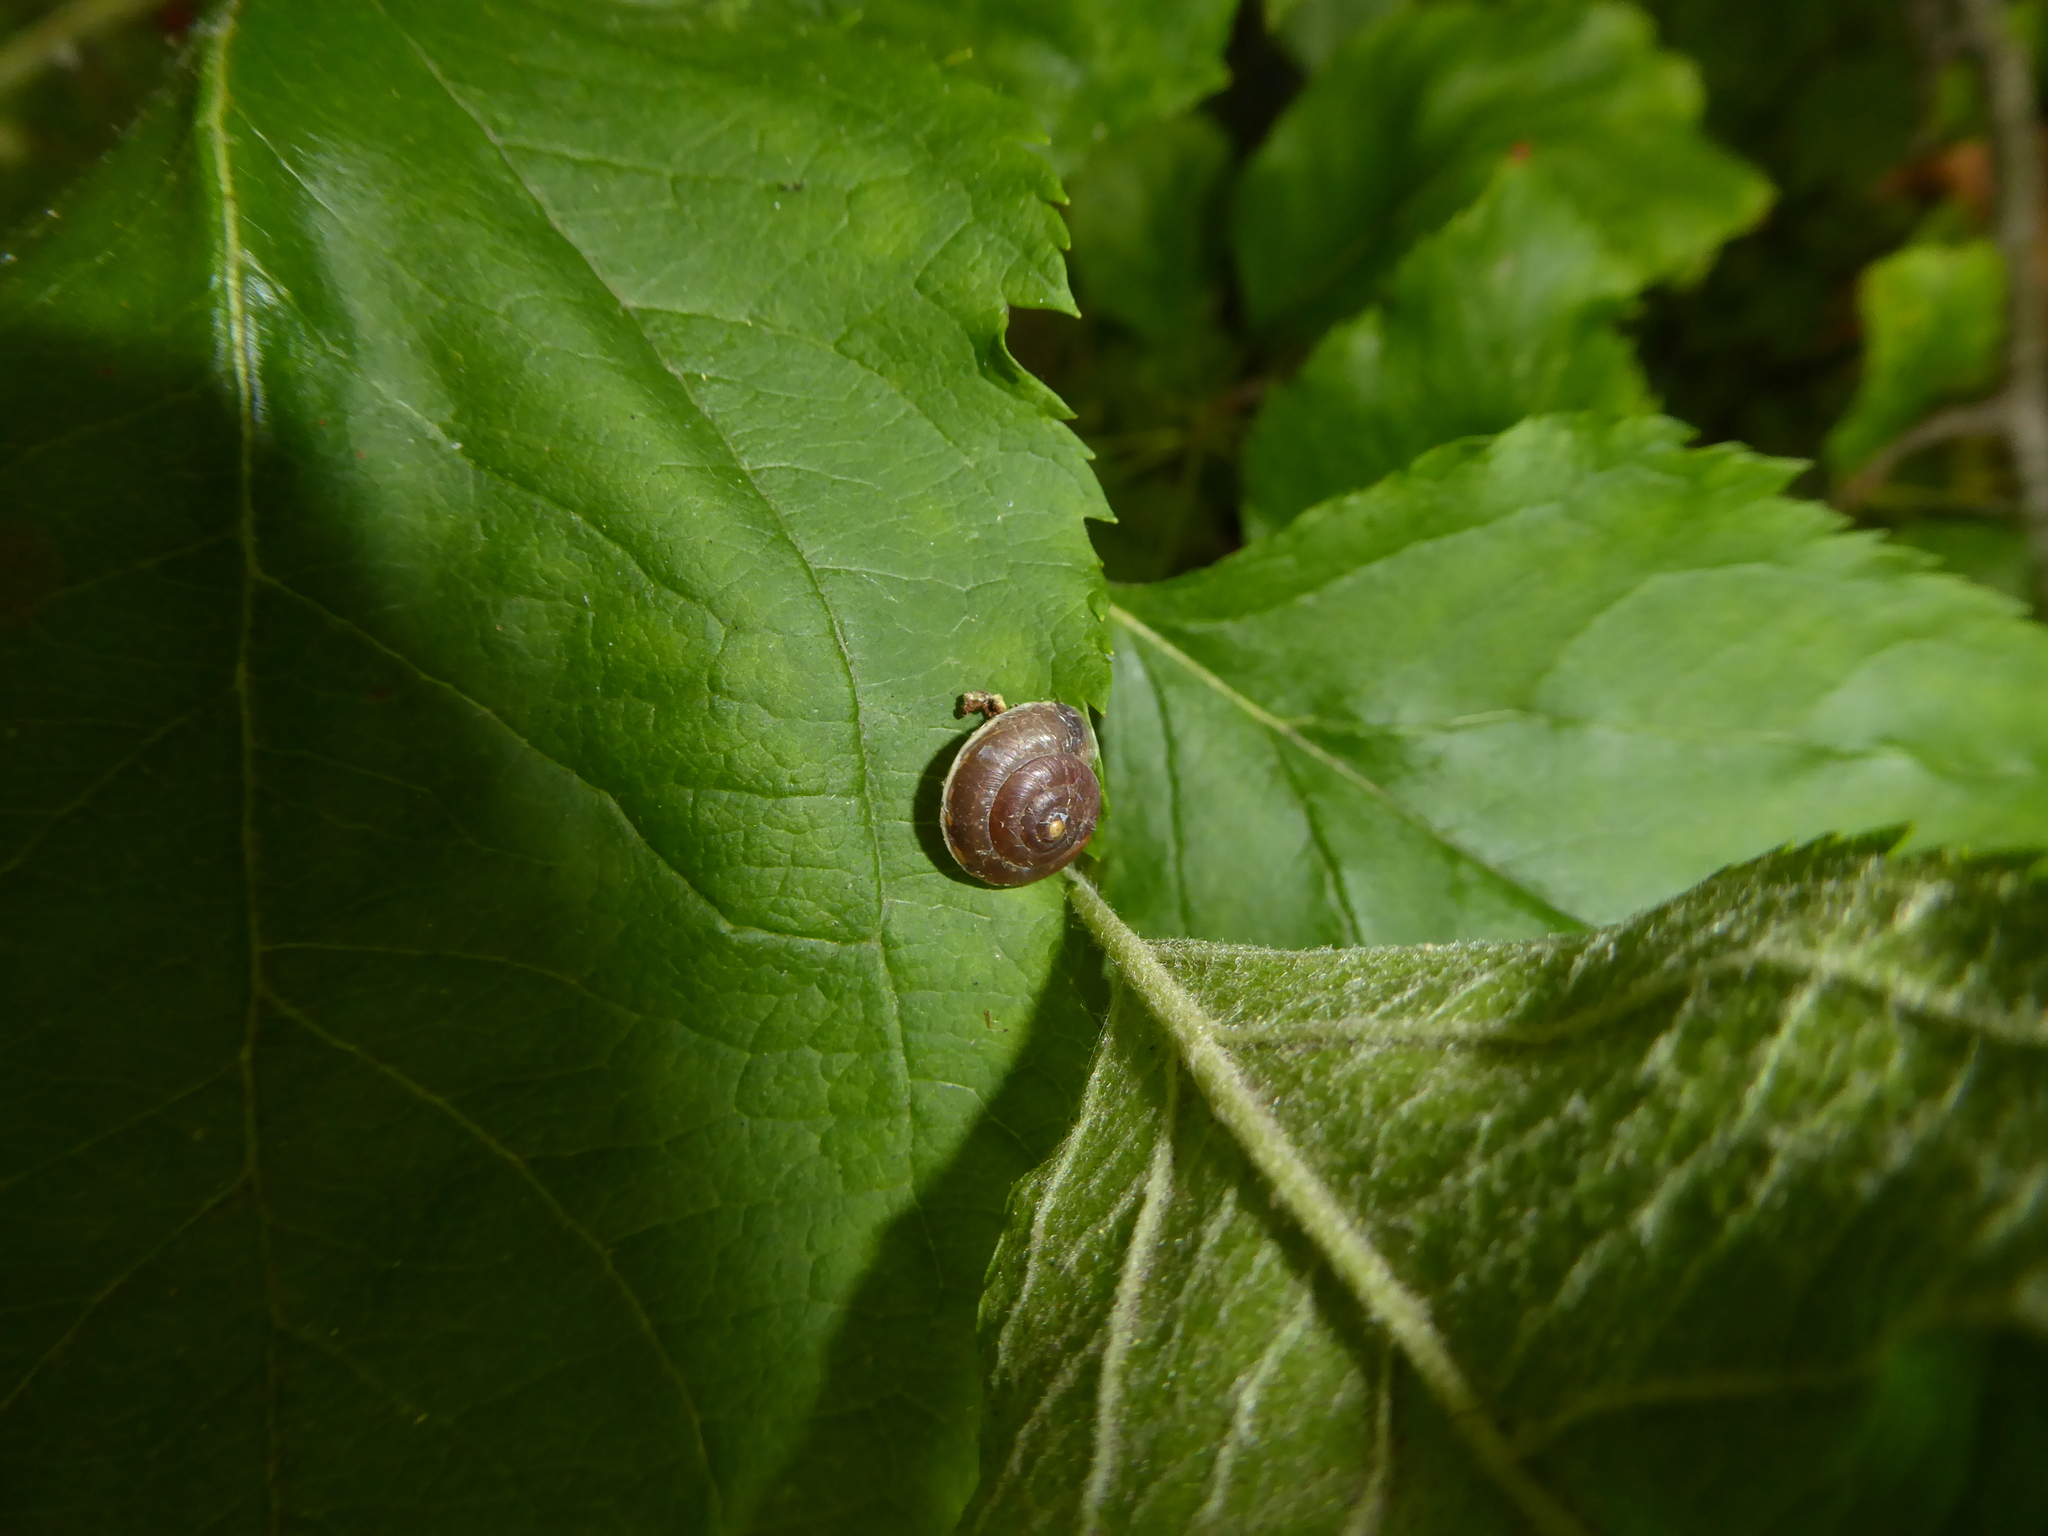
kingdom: Animalia
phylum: Mollusca
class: Gastropoda
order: Stylommatophora
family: Hygromiidae
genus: Hygromia
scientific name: Hygromia cinctella
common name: Girdled snail
